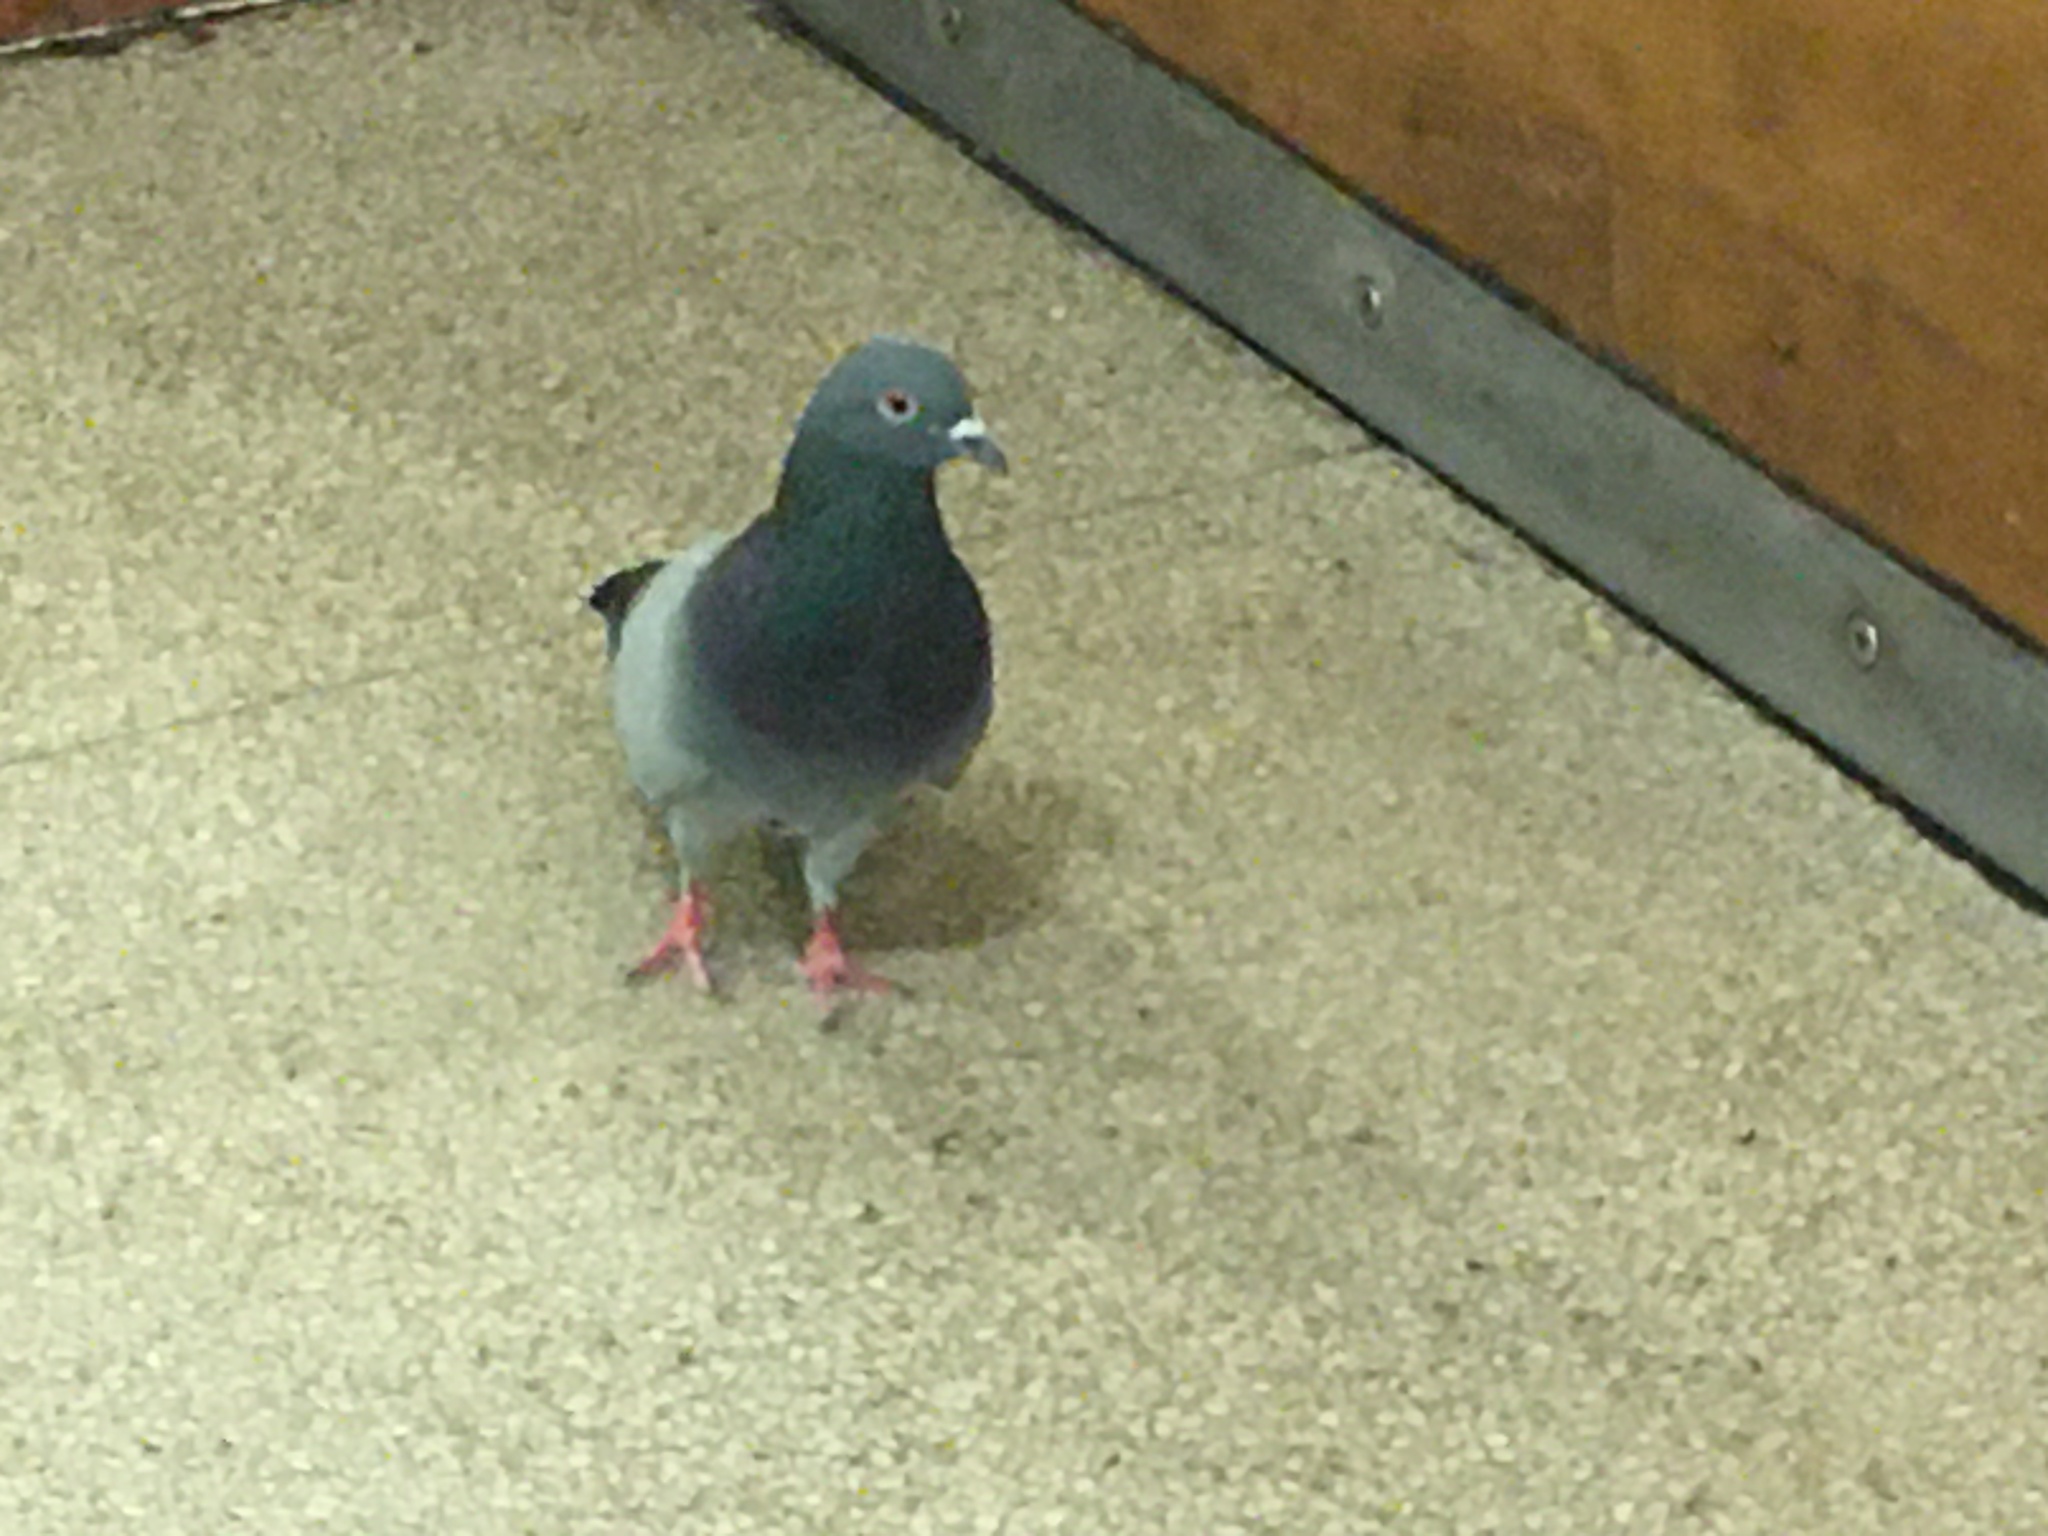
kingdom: Animalia
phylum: Chordata
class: Aves
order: Columbiformes
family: Columbidae
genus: Columba
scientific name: Columba livia
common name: Rock pigeon
